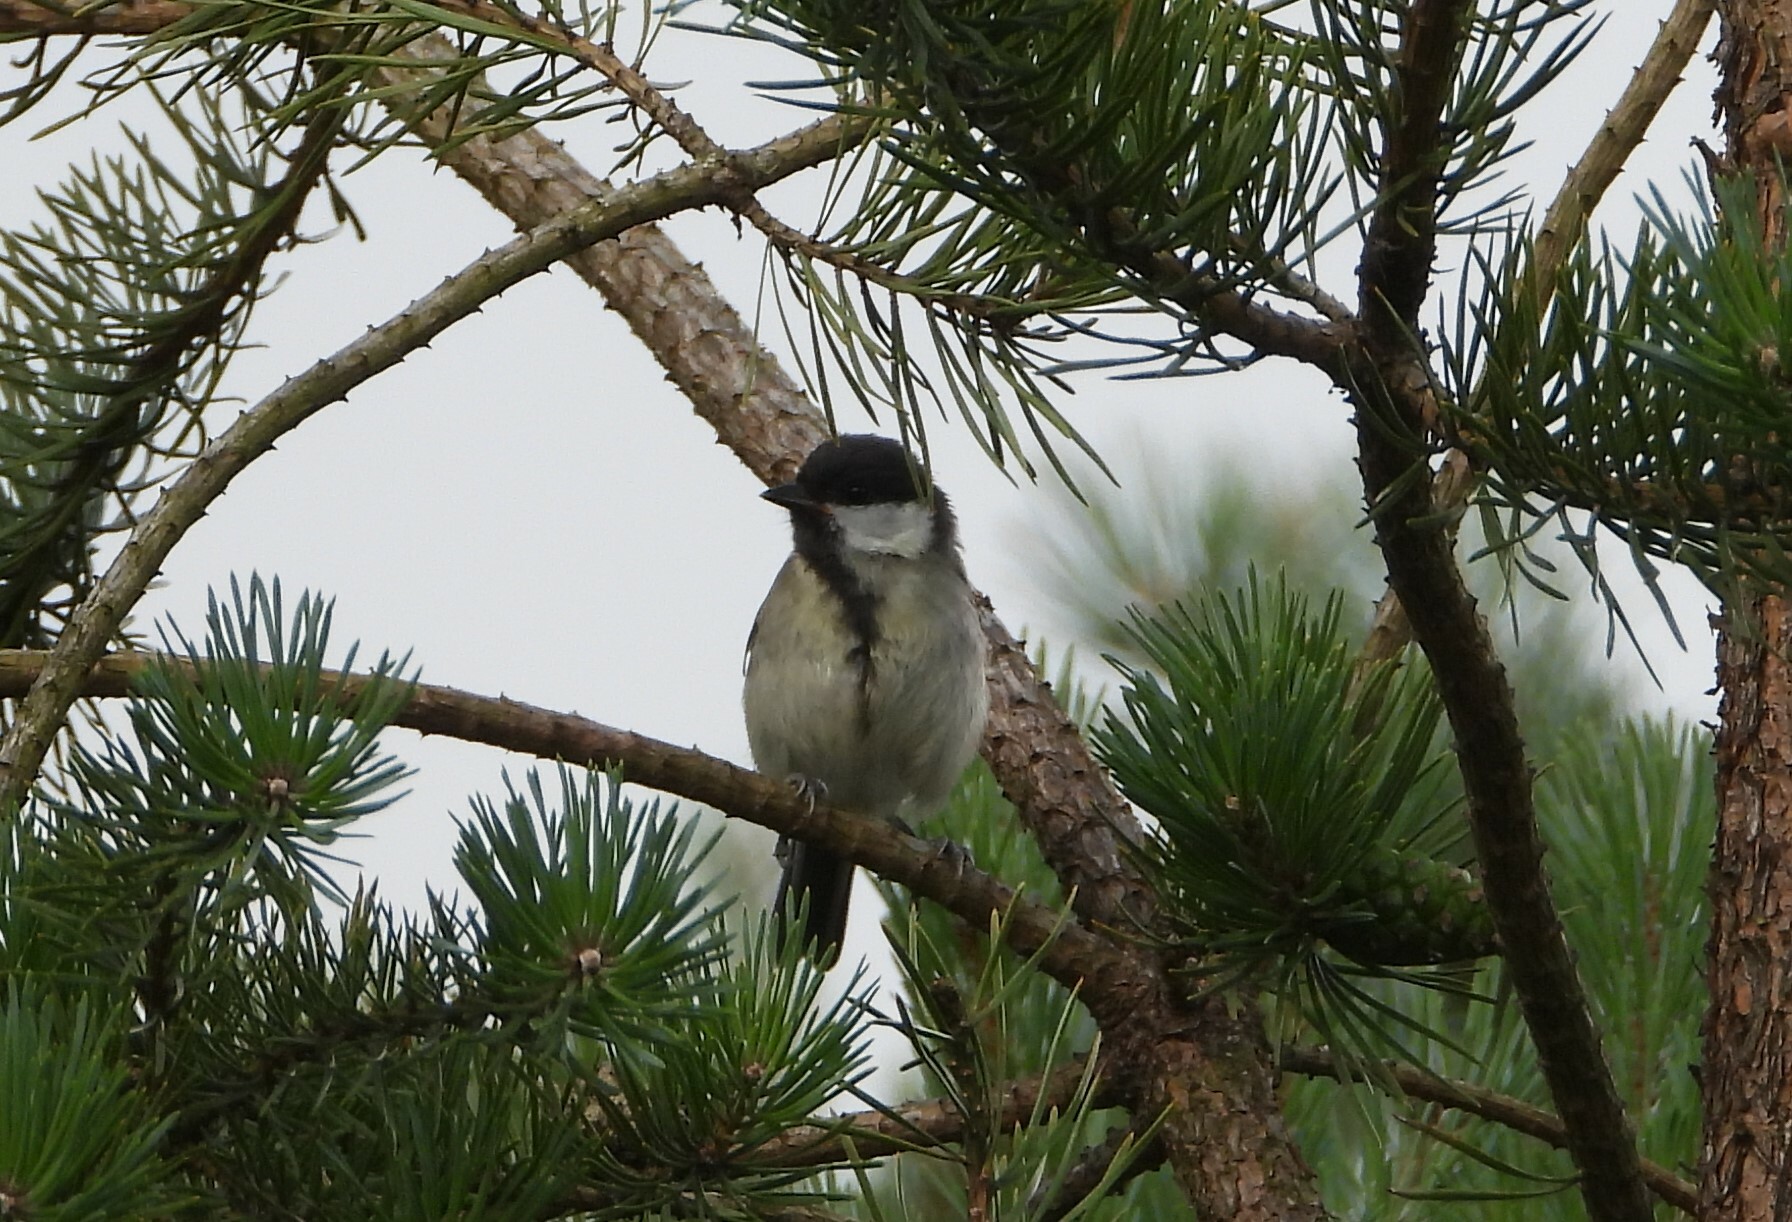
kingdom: Animalia
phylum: Chordata
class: Aves
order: Passeriformes
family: Paridae
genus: Parus
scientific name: Parus major
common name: Great tit
